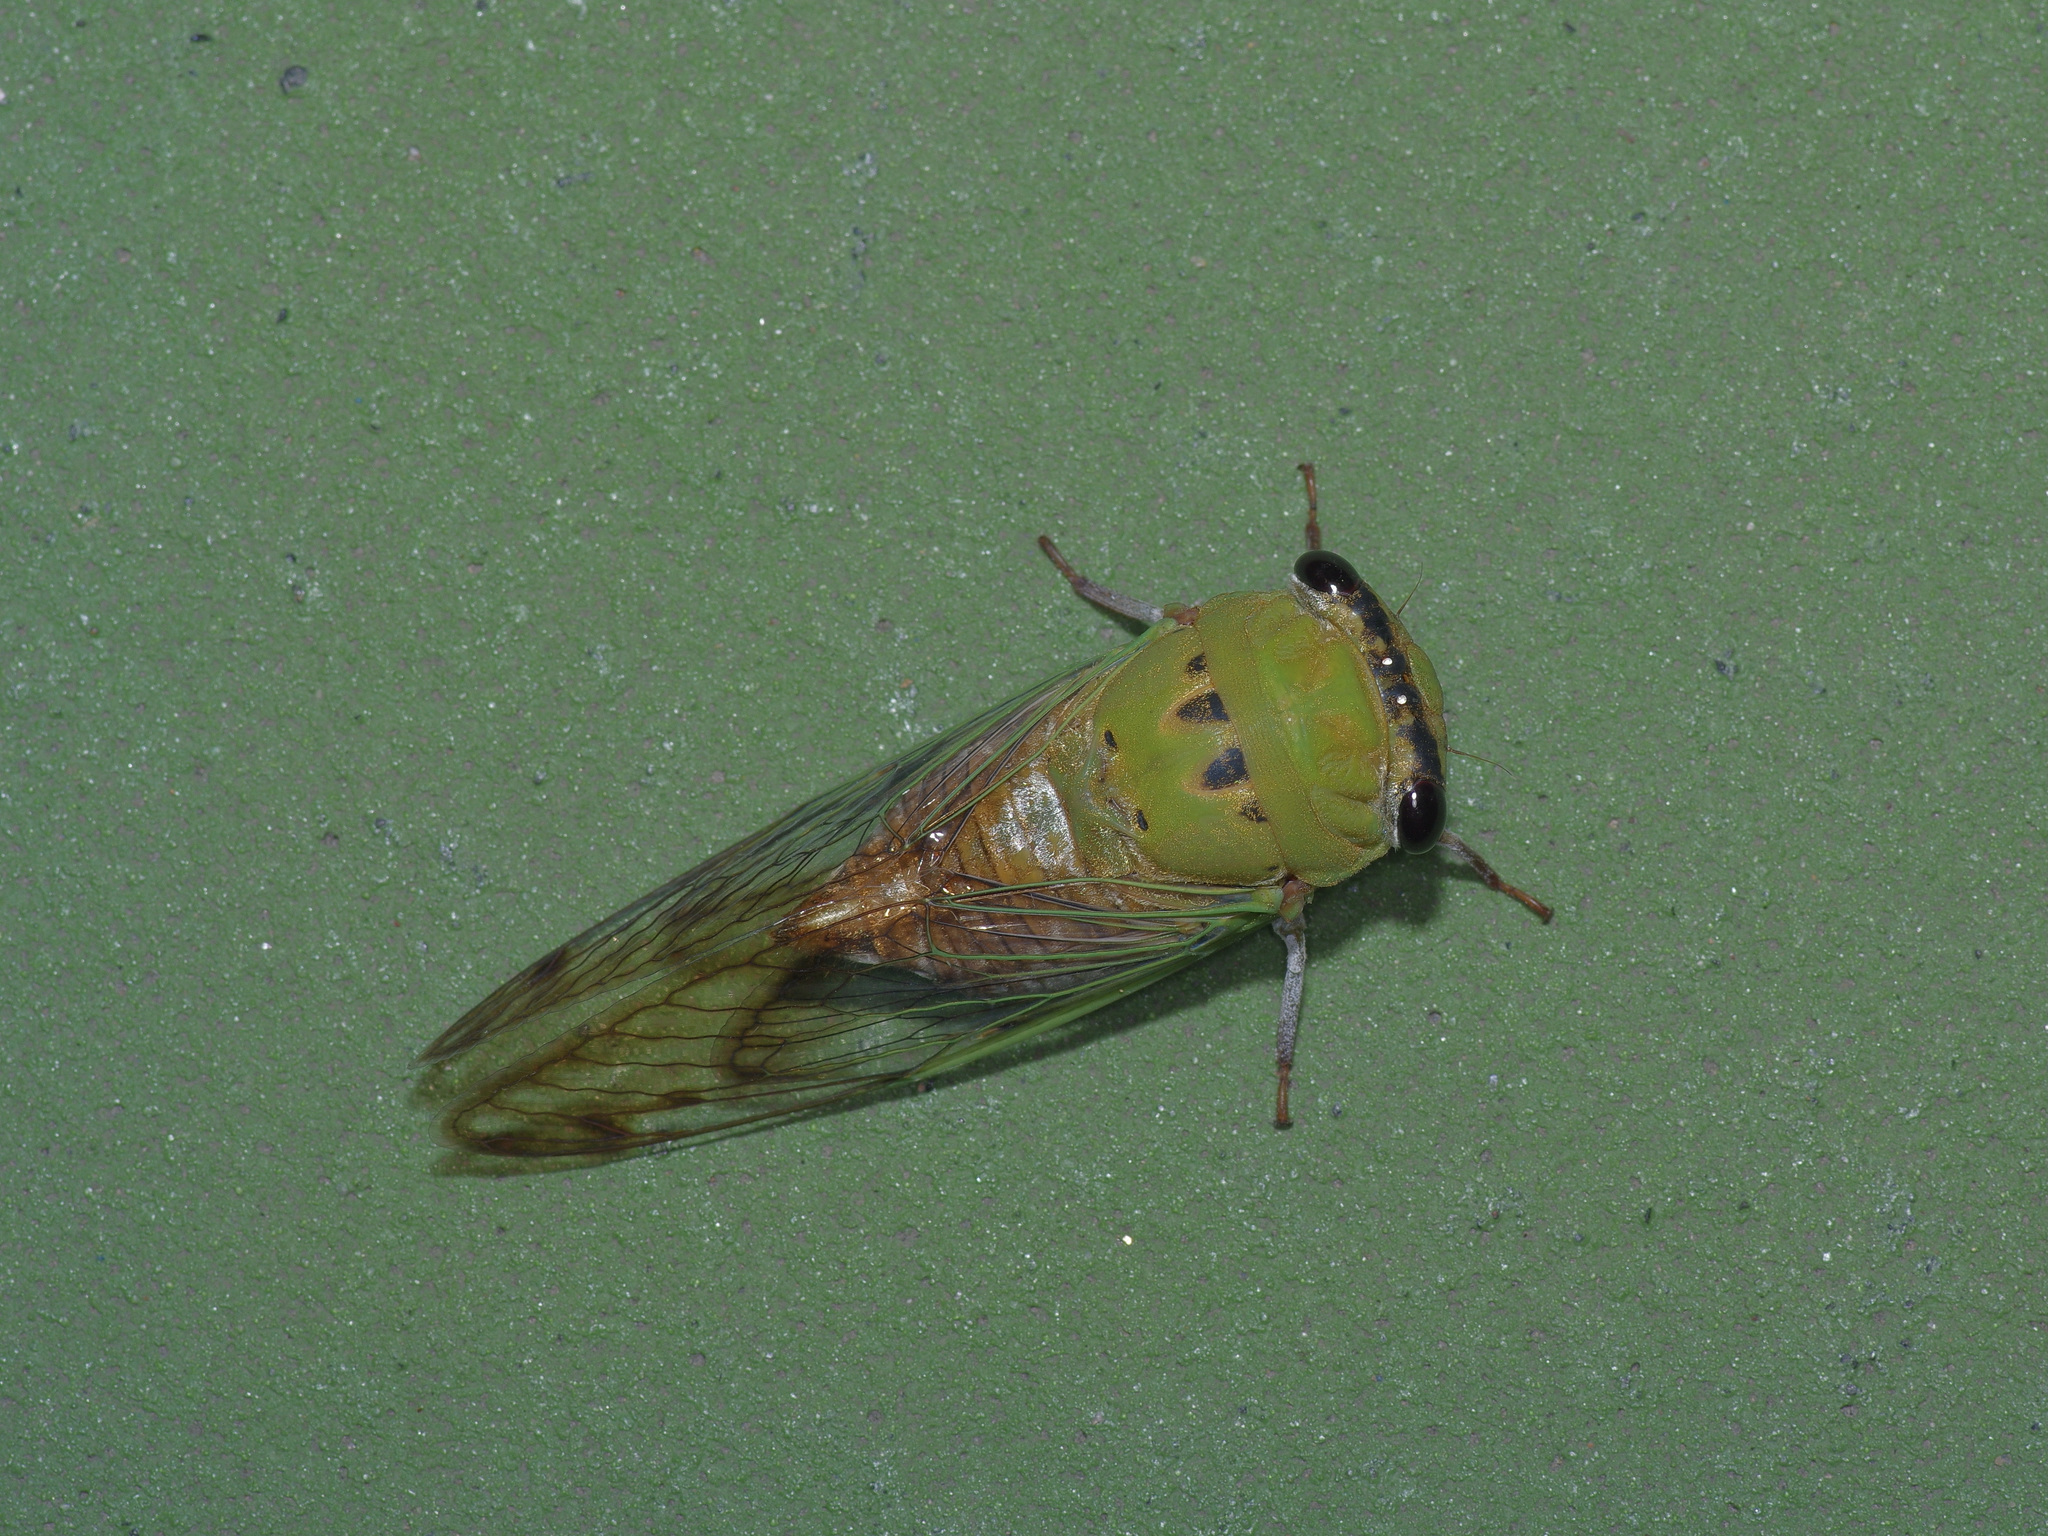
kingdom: Animalia
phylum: Arthropoda
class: Insecta
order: Hemiptera
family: Cicadidae
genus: Neotibicen
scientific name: Neotibicen superbus
